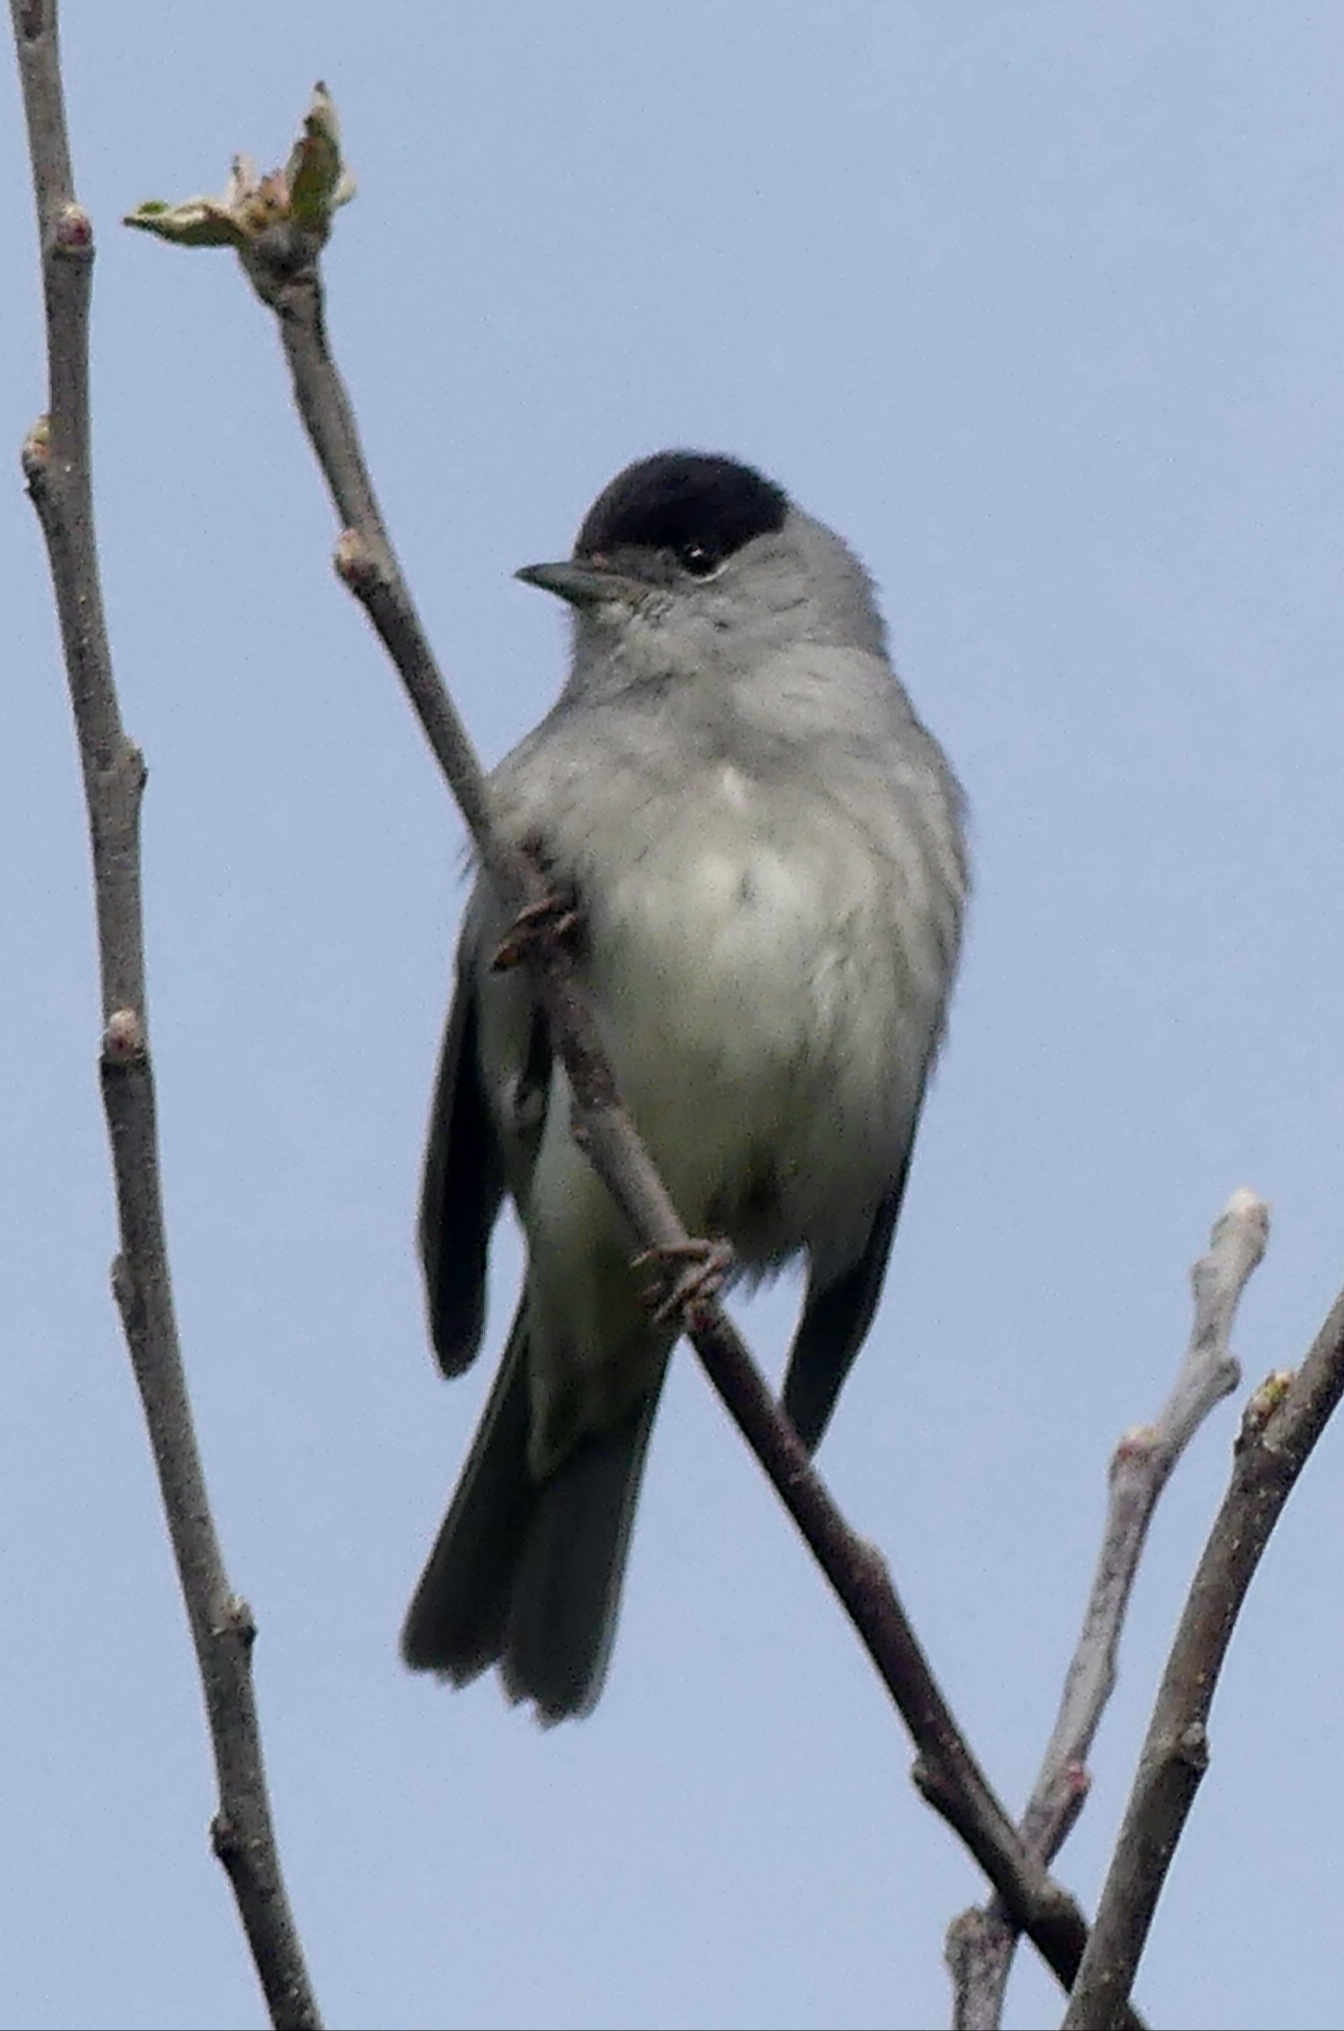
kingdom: Animalia
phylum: Chordata
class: Aves
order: Passeriformes
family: Sylviidae
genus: Sylvia
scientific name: Sylvia atricapilla
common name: Eurasian blackcap
